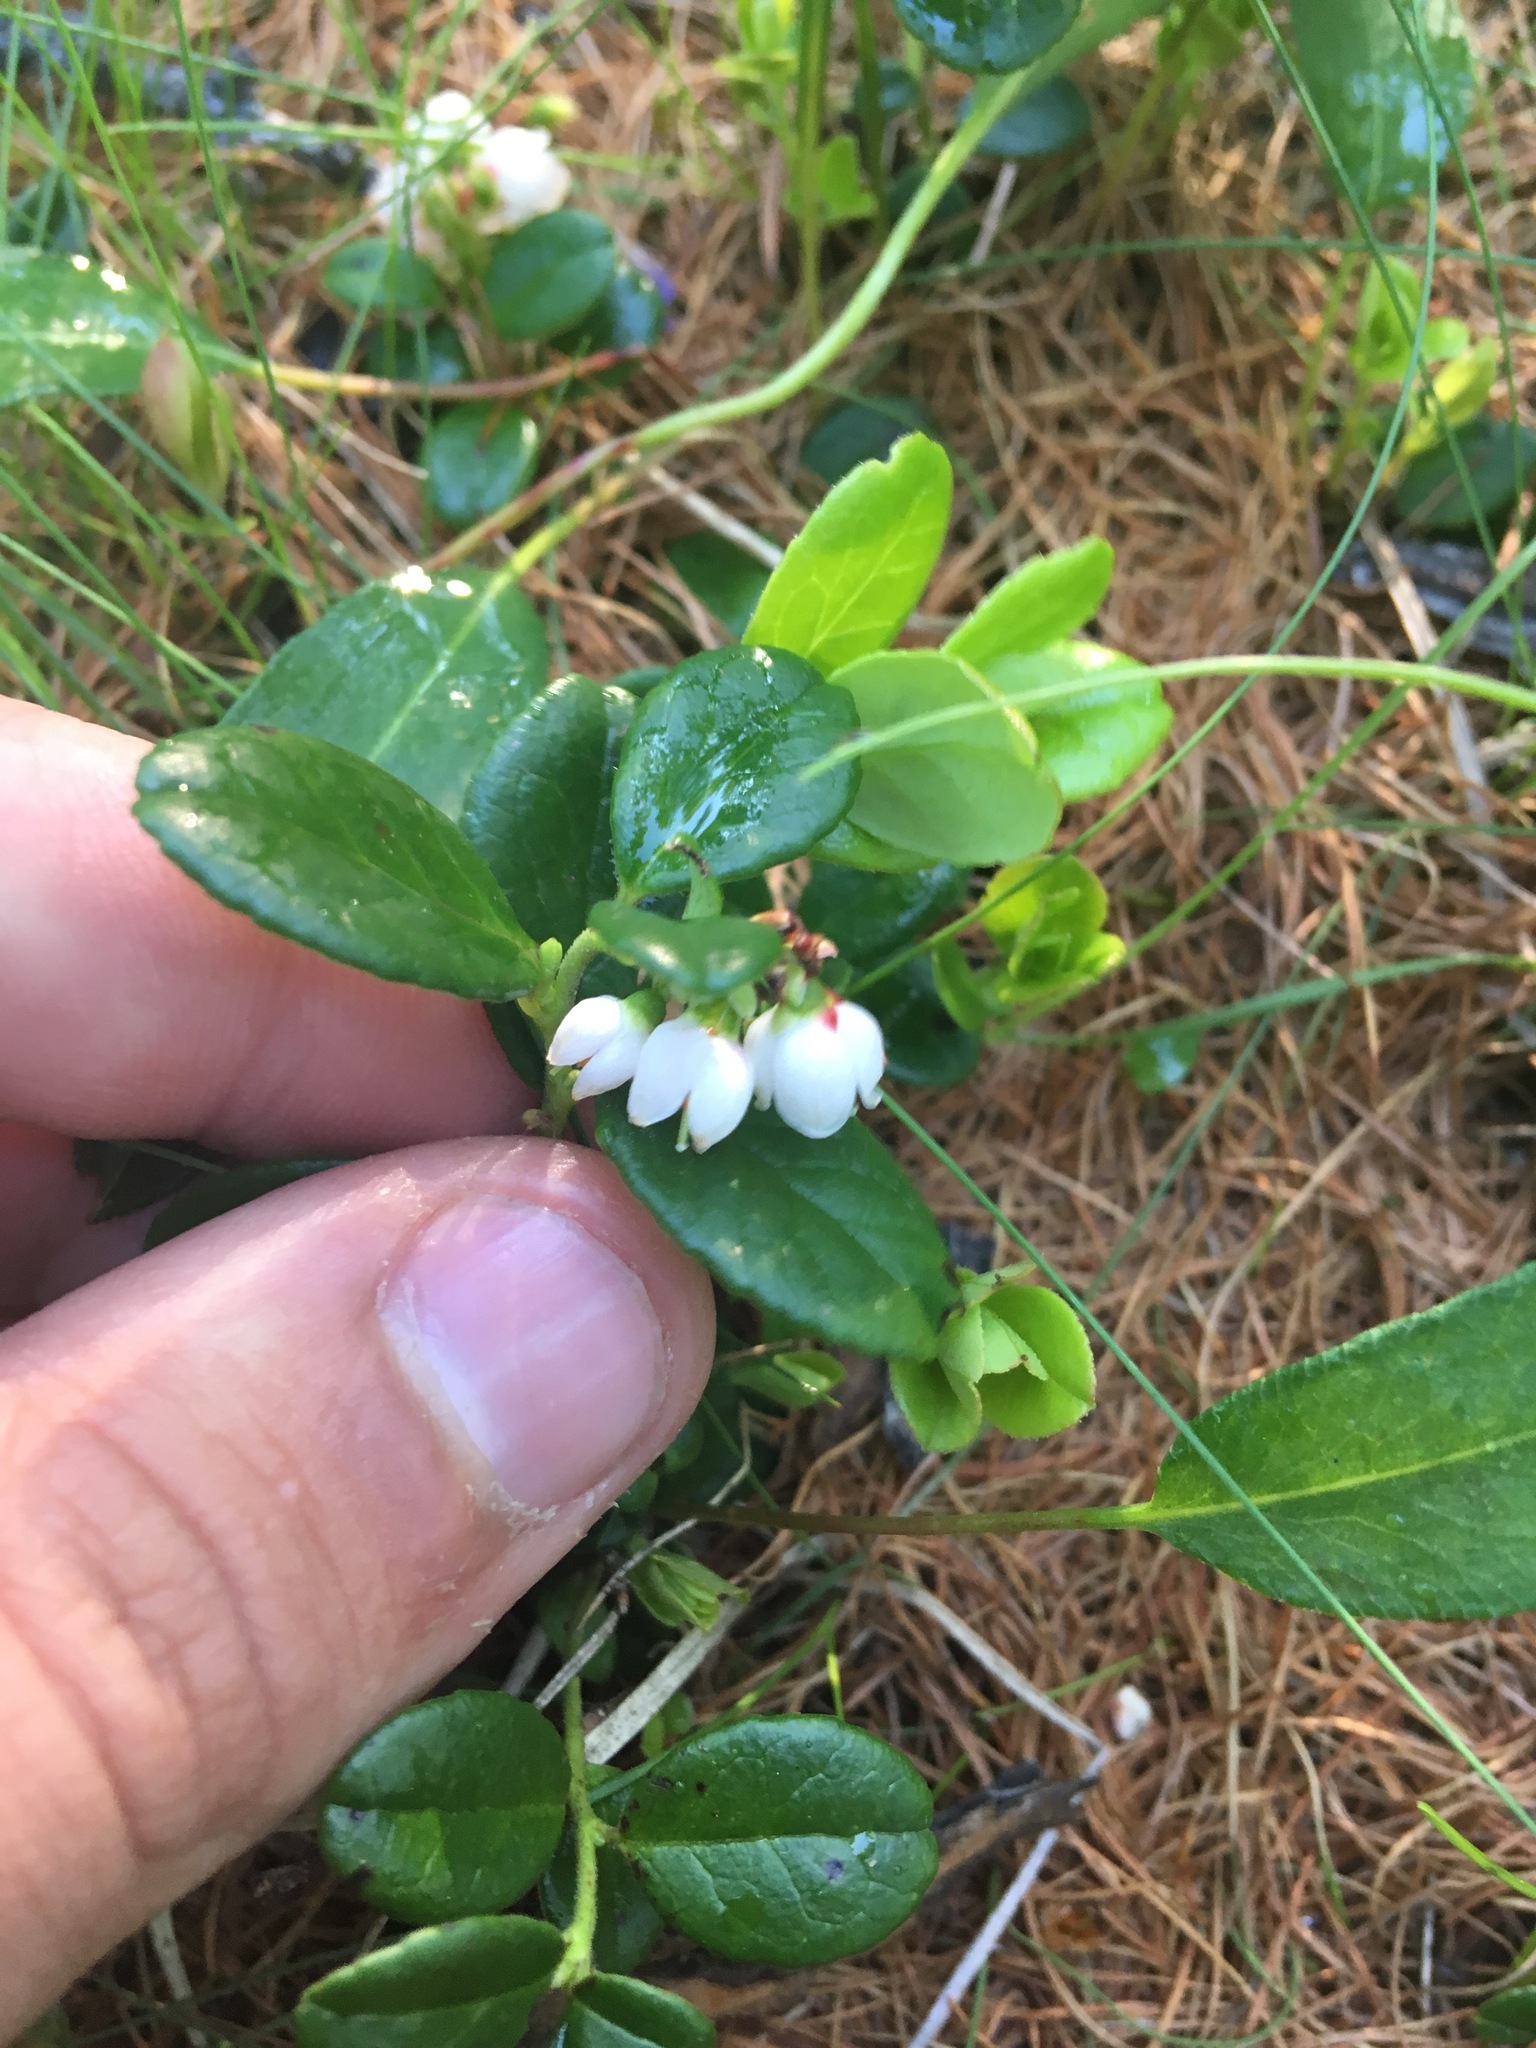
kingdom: Plantae
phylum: Tracheophyta
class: Magnoliopsida
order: Ericales
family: Ericaceae
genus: Vaccinium
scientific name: Vaccinium vitis-idaea
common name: Cowberry
